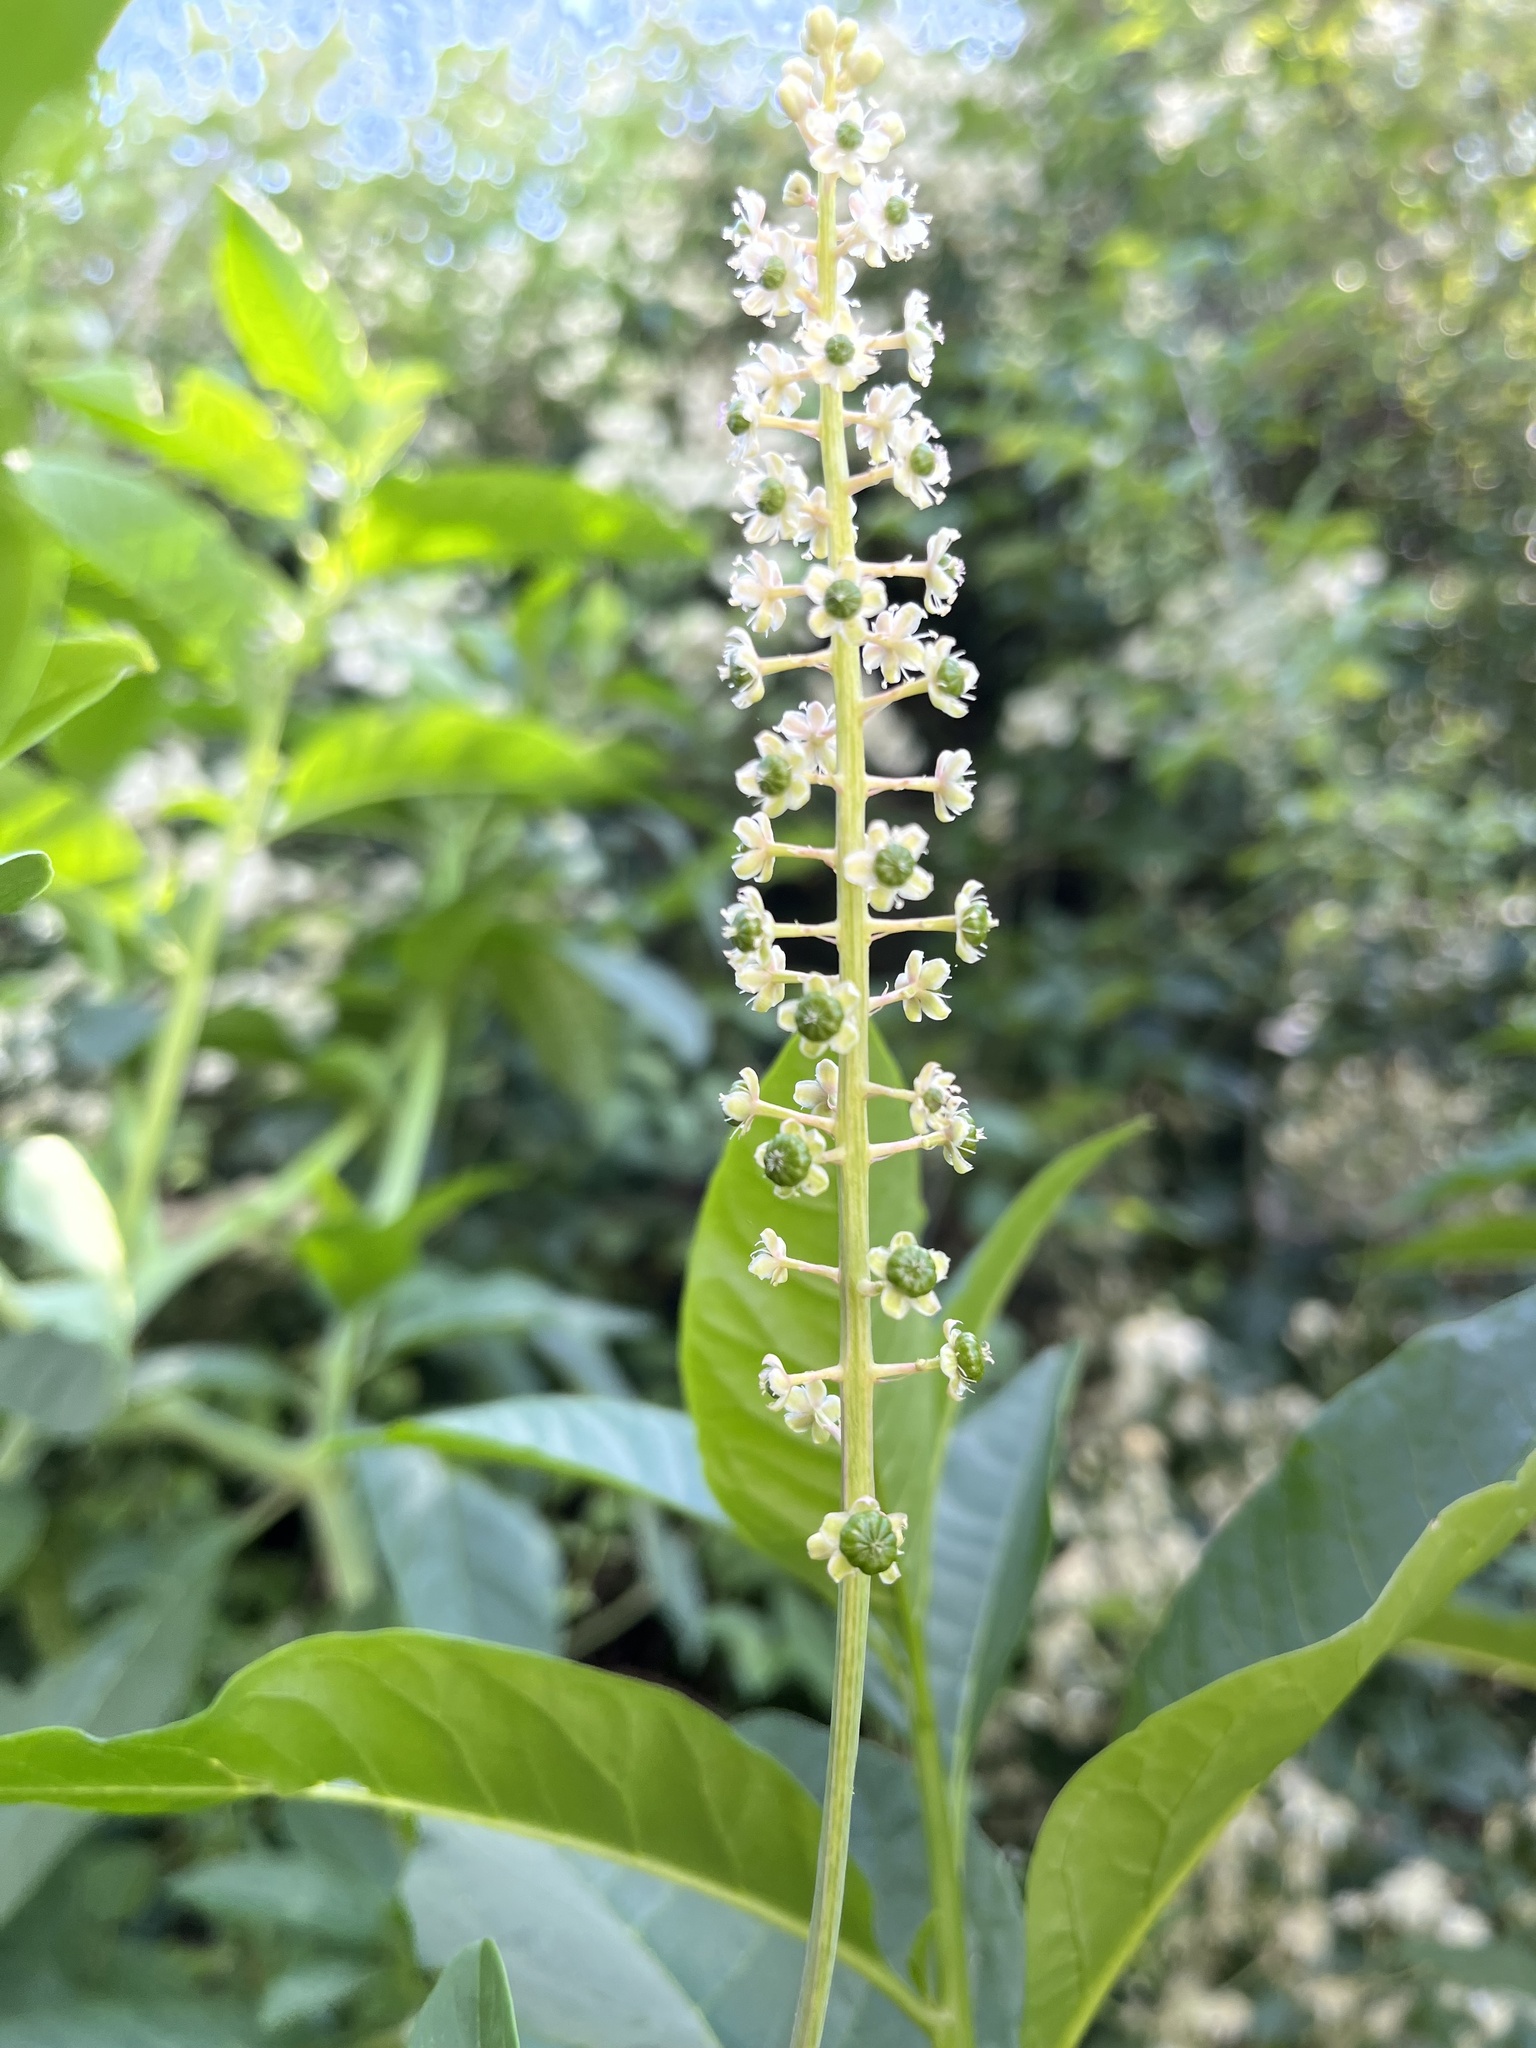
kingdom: Plantae
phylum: Tracheophyta
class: Magnoliopsida
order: Caryophyllales
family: Phytolaccaceae
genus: Phytolacca
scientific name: Phytolacca americana
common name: American pokeweed
